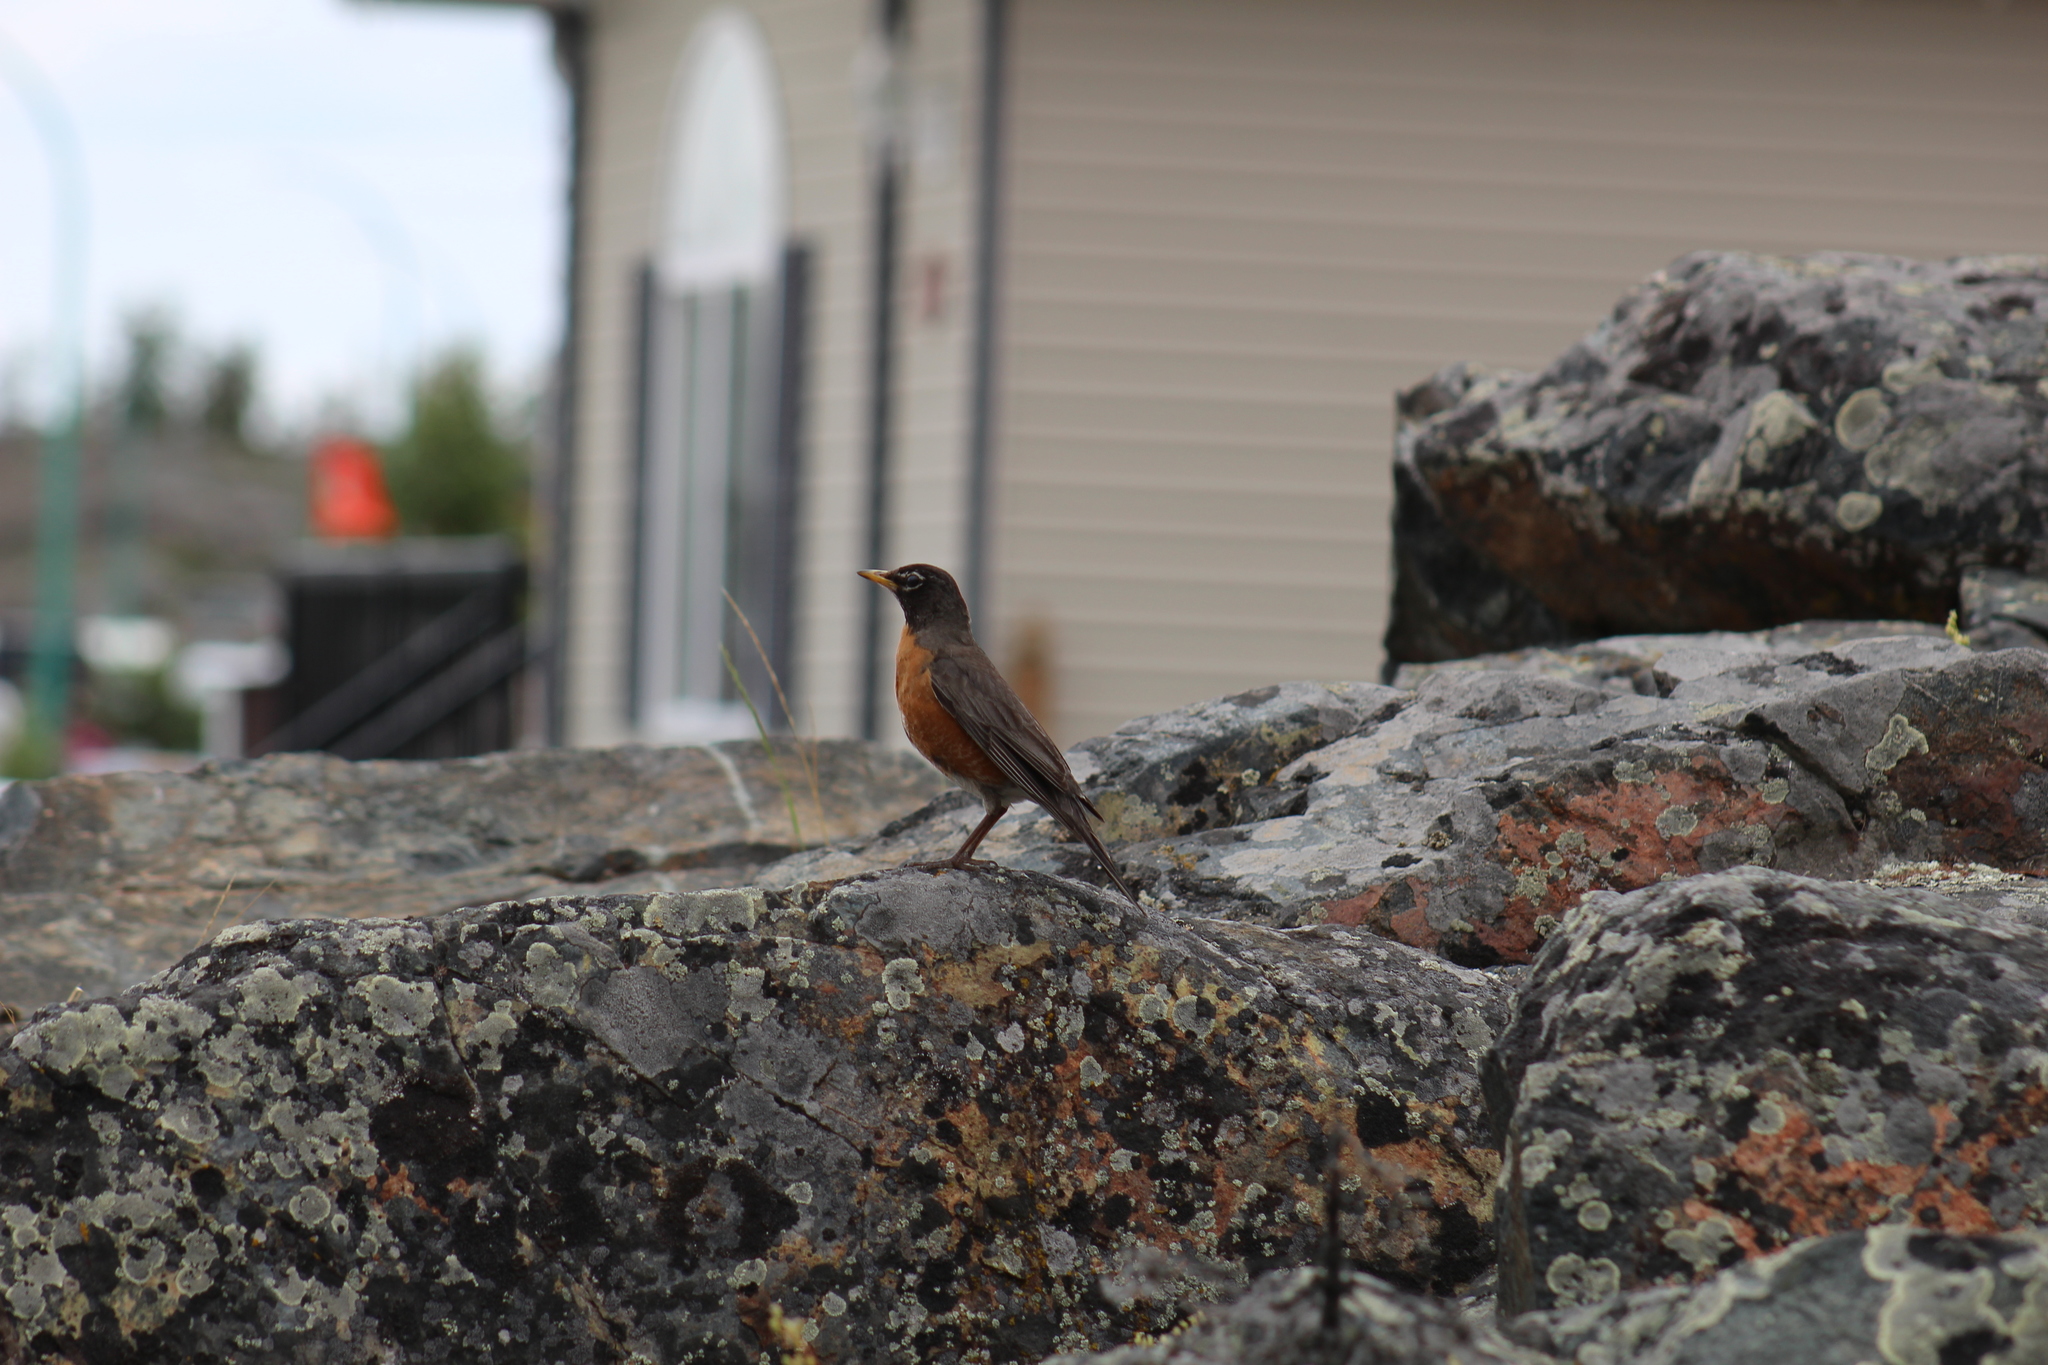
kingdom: Animalia
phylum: Chordata
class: Aves
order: Passeriformes
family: Turdidae
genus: Turdus
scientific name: Turdus migratorius
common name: American robin
